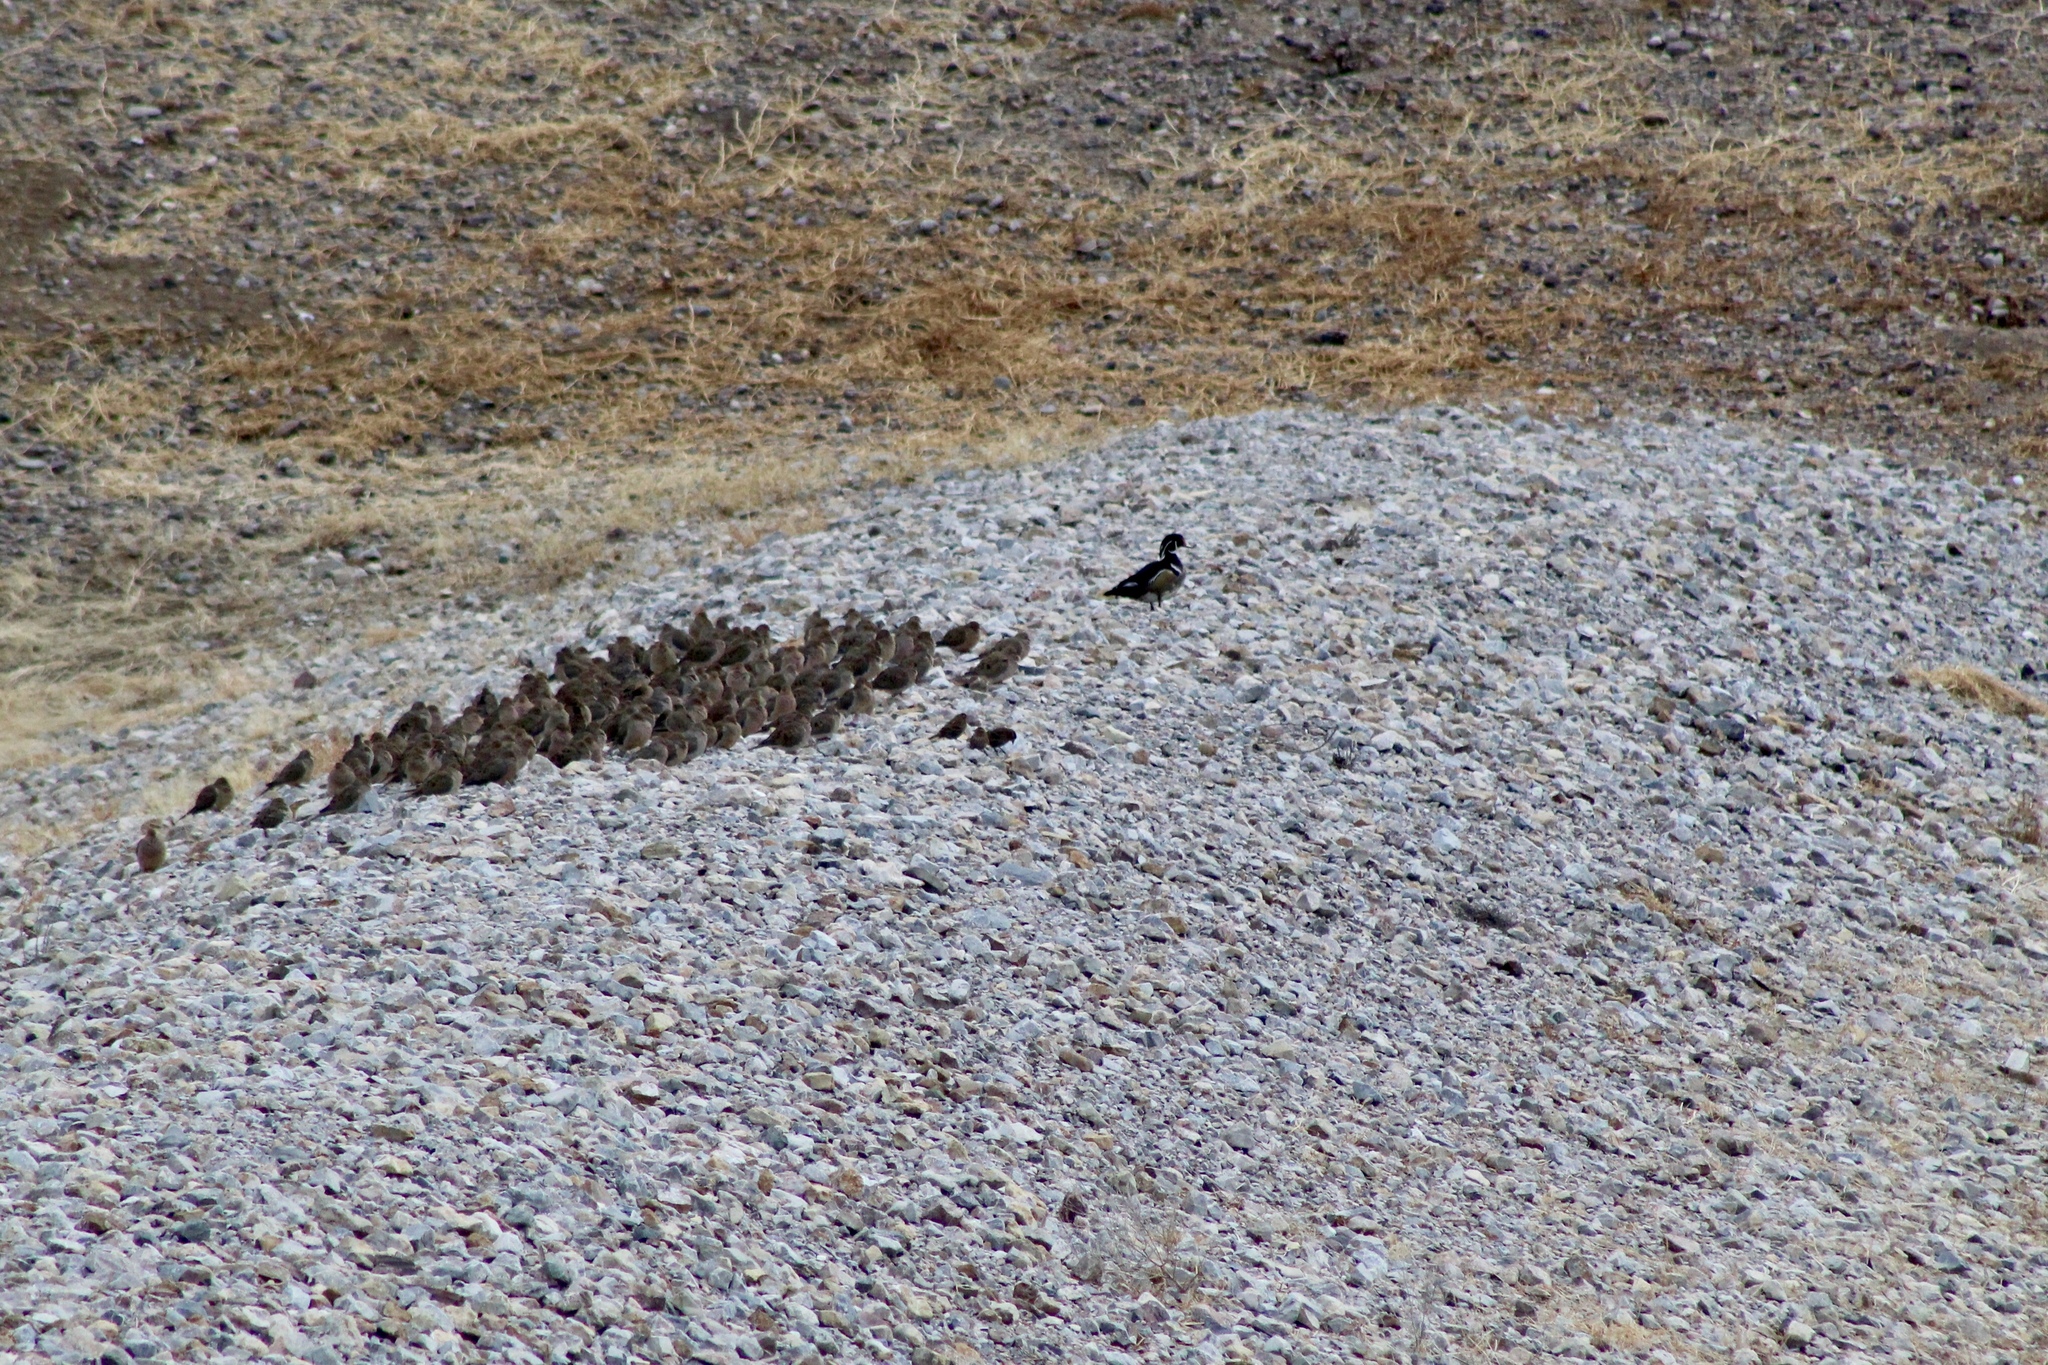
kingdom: Animalia
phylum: Chordata
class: Aves
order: Columbiformes
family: Columbidae
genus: Zenaida
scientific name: Zenaida macroura
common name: Mourning dove
